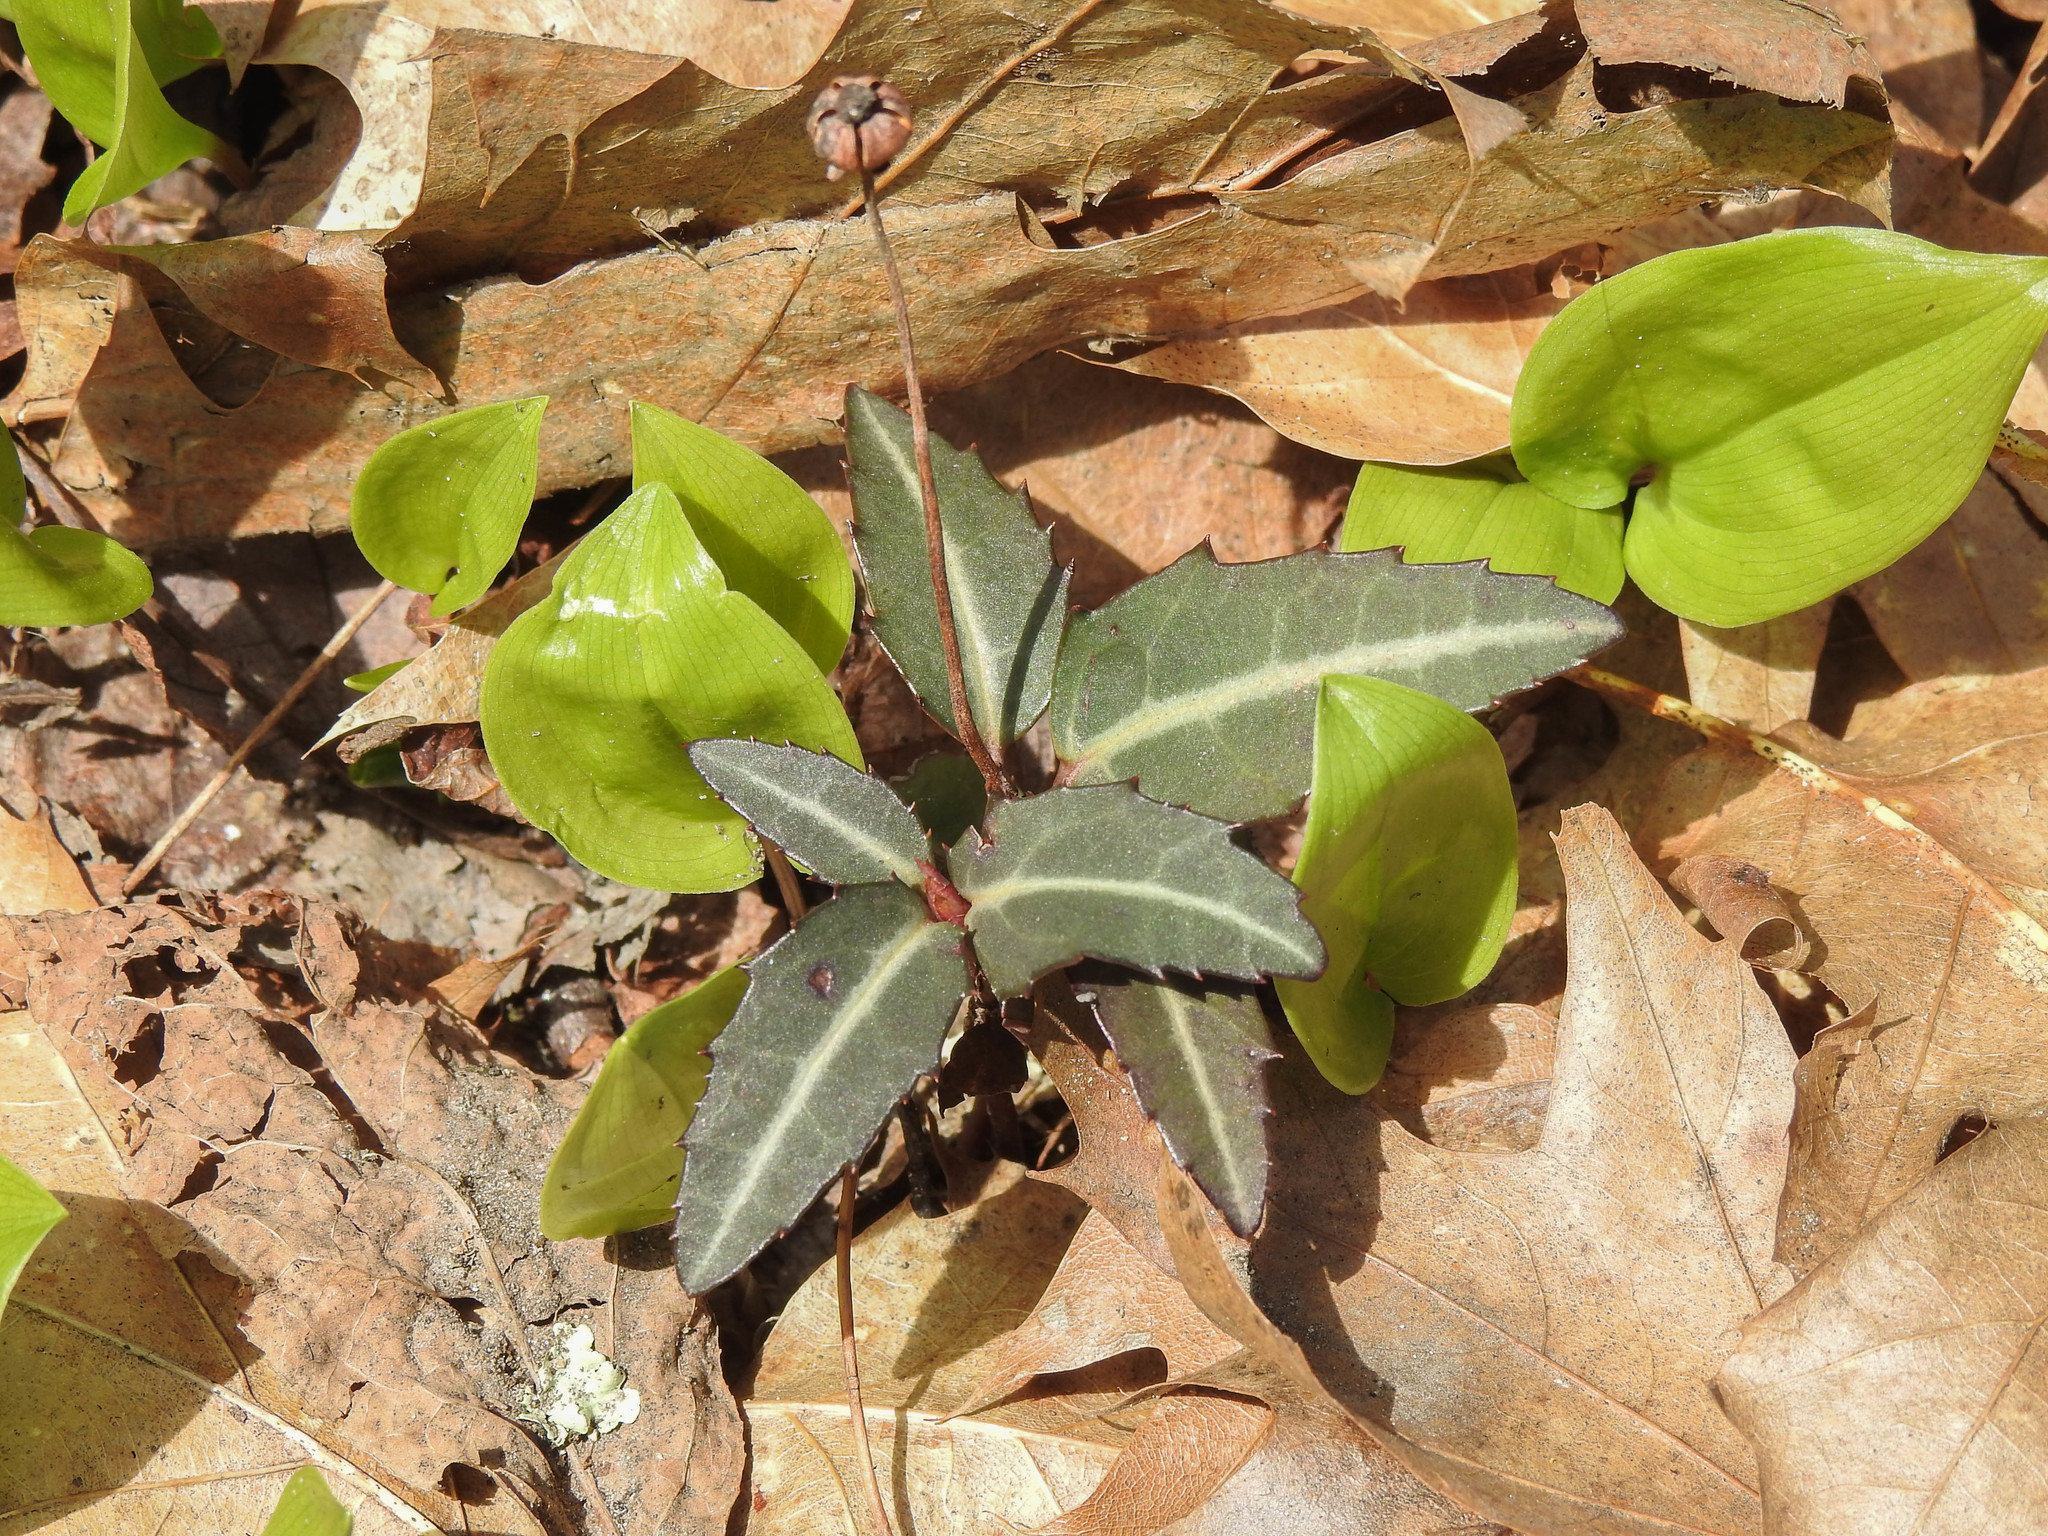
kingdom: Plantae
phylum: Tracheophyta
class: Magnoliopsida
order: Ericales
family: Ericaceae
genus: Chimaphila
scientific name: Chimaphila maculata
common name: Spotted pipsissewa
